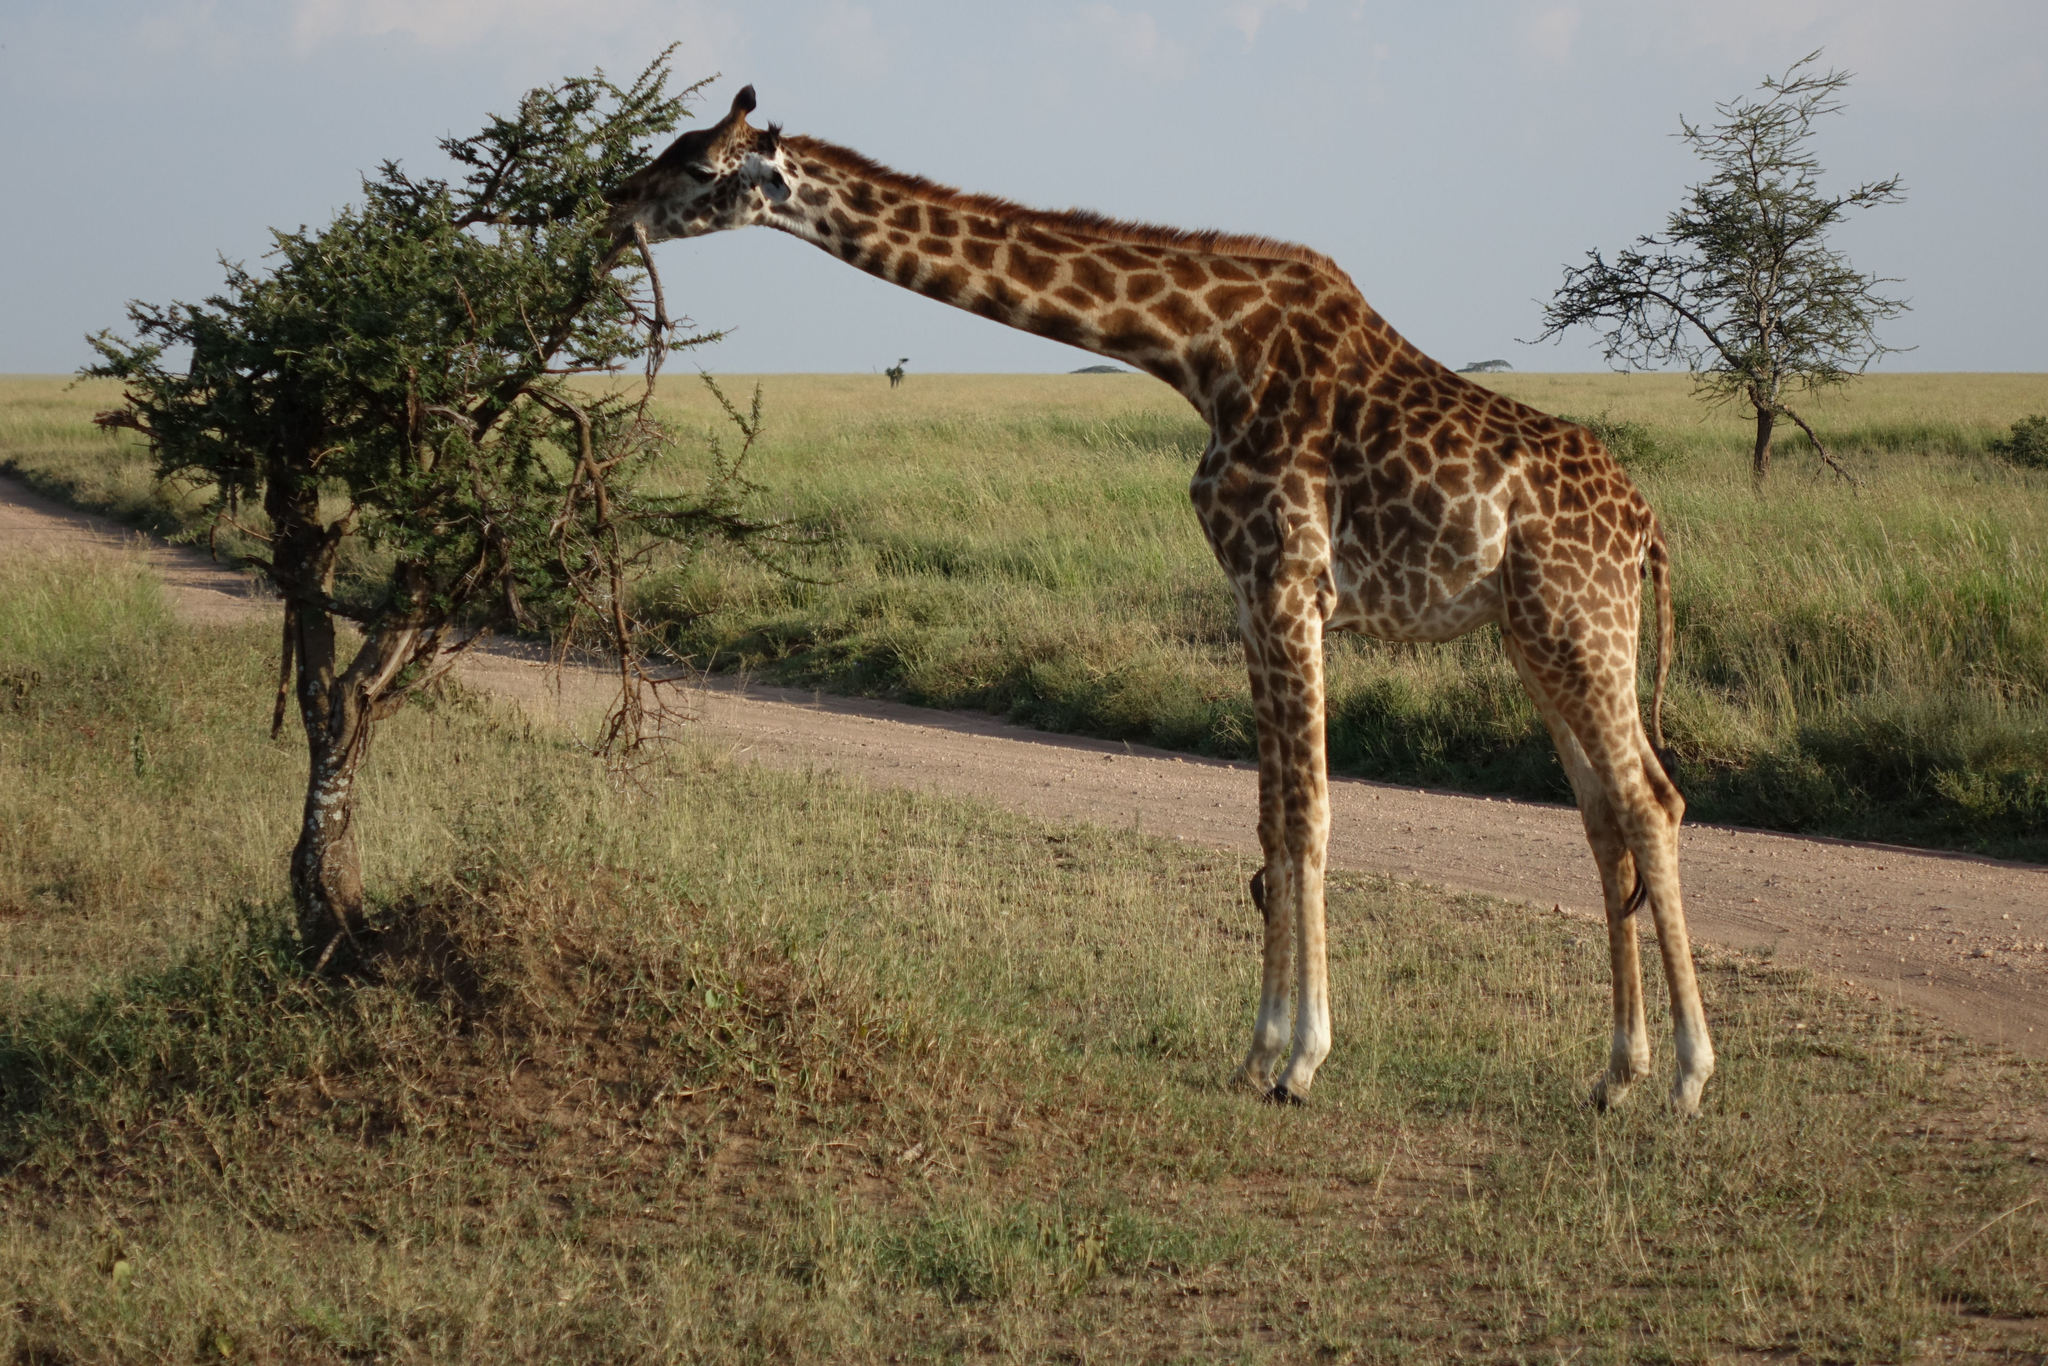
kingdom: Animalia
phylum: Chordata
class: Mammalia
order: Artiodactyla
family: Giraffidae
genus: Giraffa
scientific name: Giraffa tippelskirchi
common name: Masai giraffe
